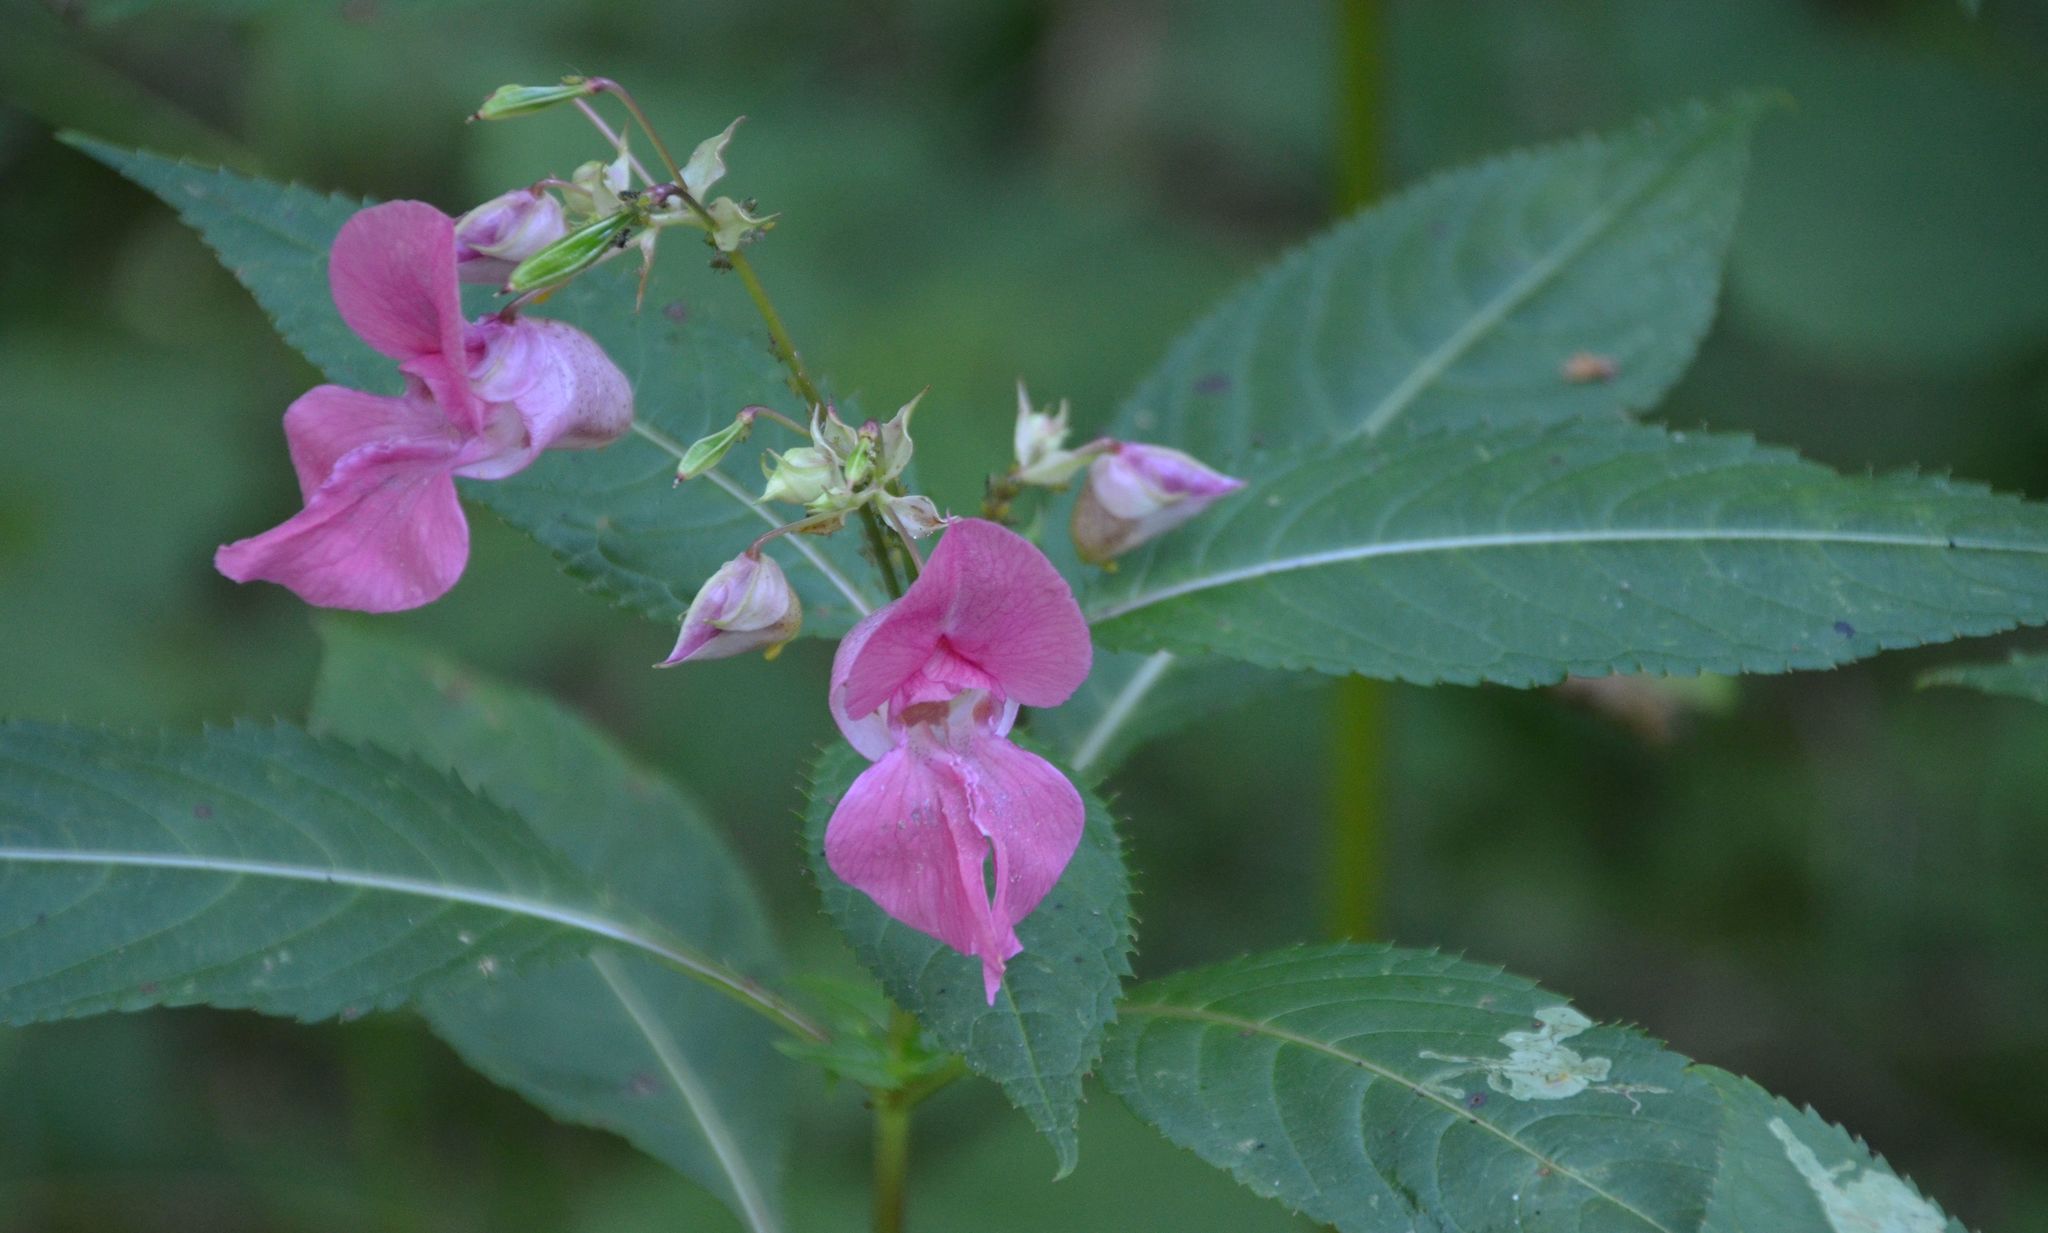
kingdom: Plantae
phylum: Tracheophyta
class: Magnoliopsida
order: Ericales
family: Balsaminaceae
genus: Impatiens
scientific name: Impatiens glandulifera
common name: Himalayan balsam
